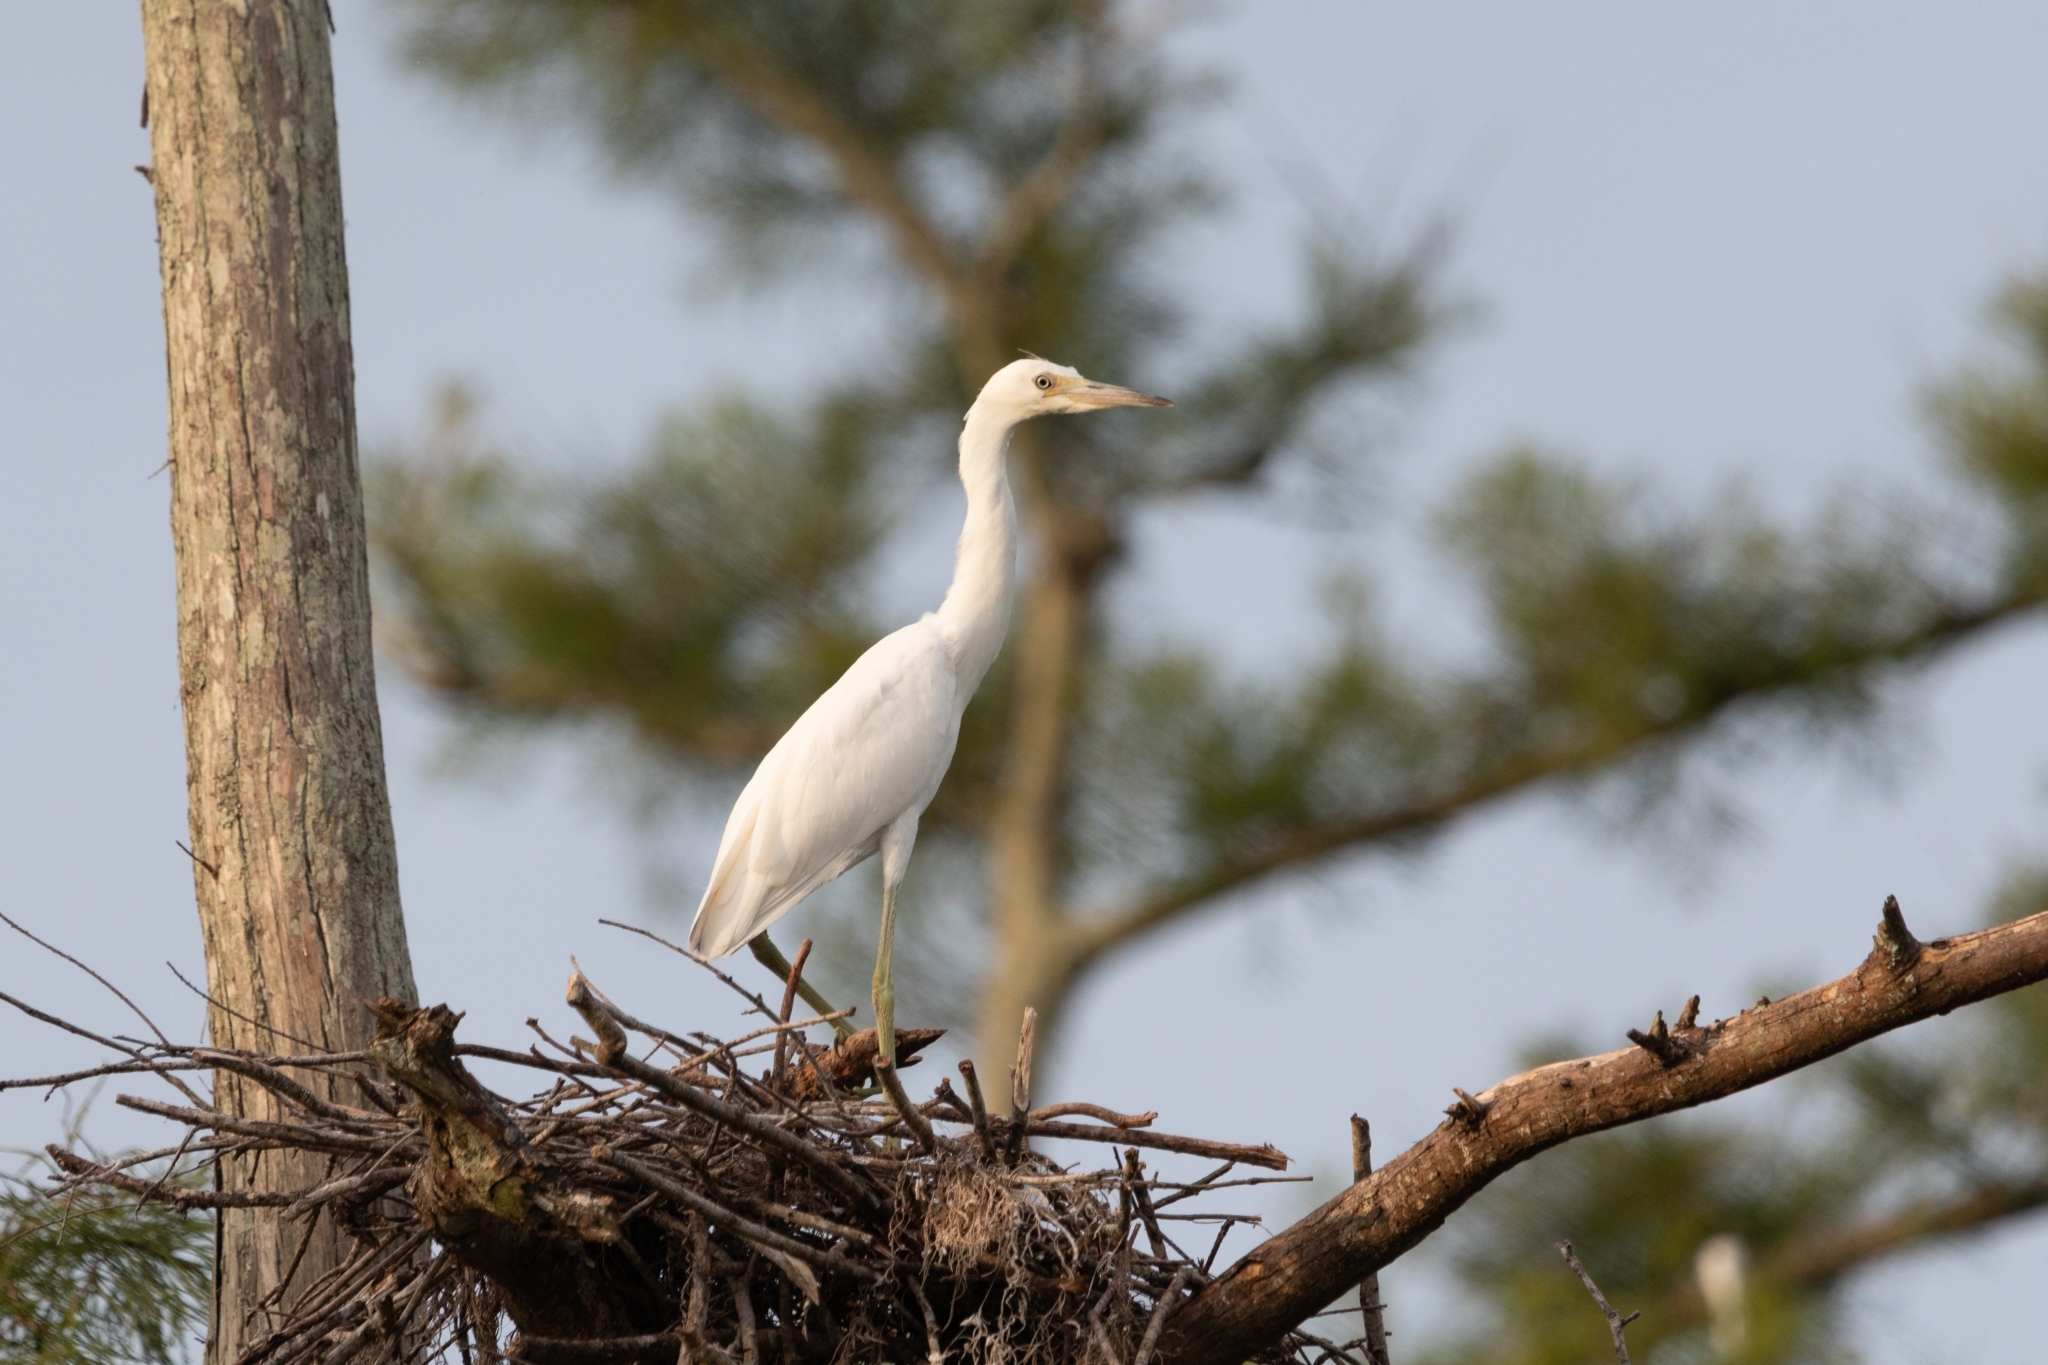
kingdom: Animalia
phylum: Chordata
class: Aves
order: Pelecaniformes
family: Ardeidae
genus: Egretta
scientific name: Egretta caerulea
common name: Little blue heron
